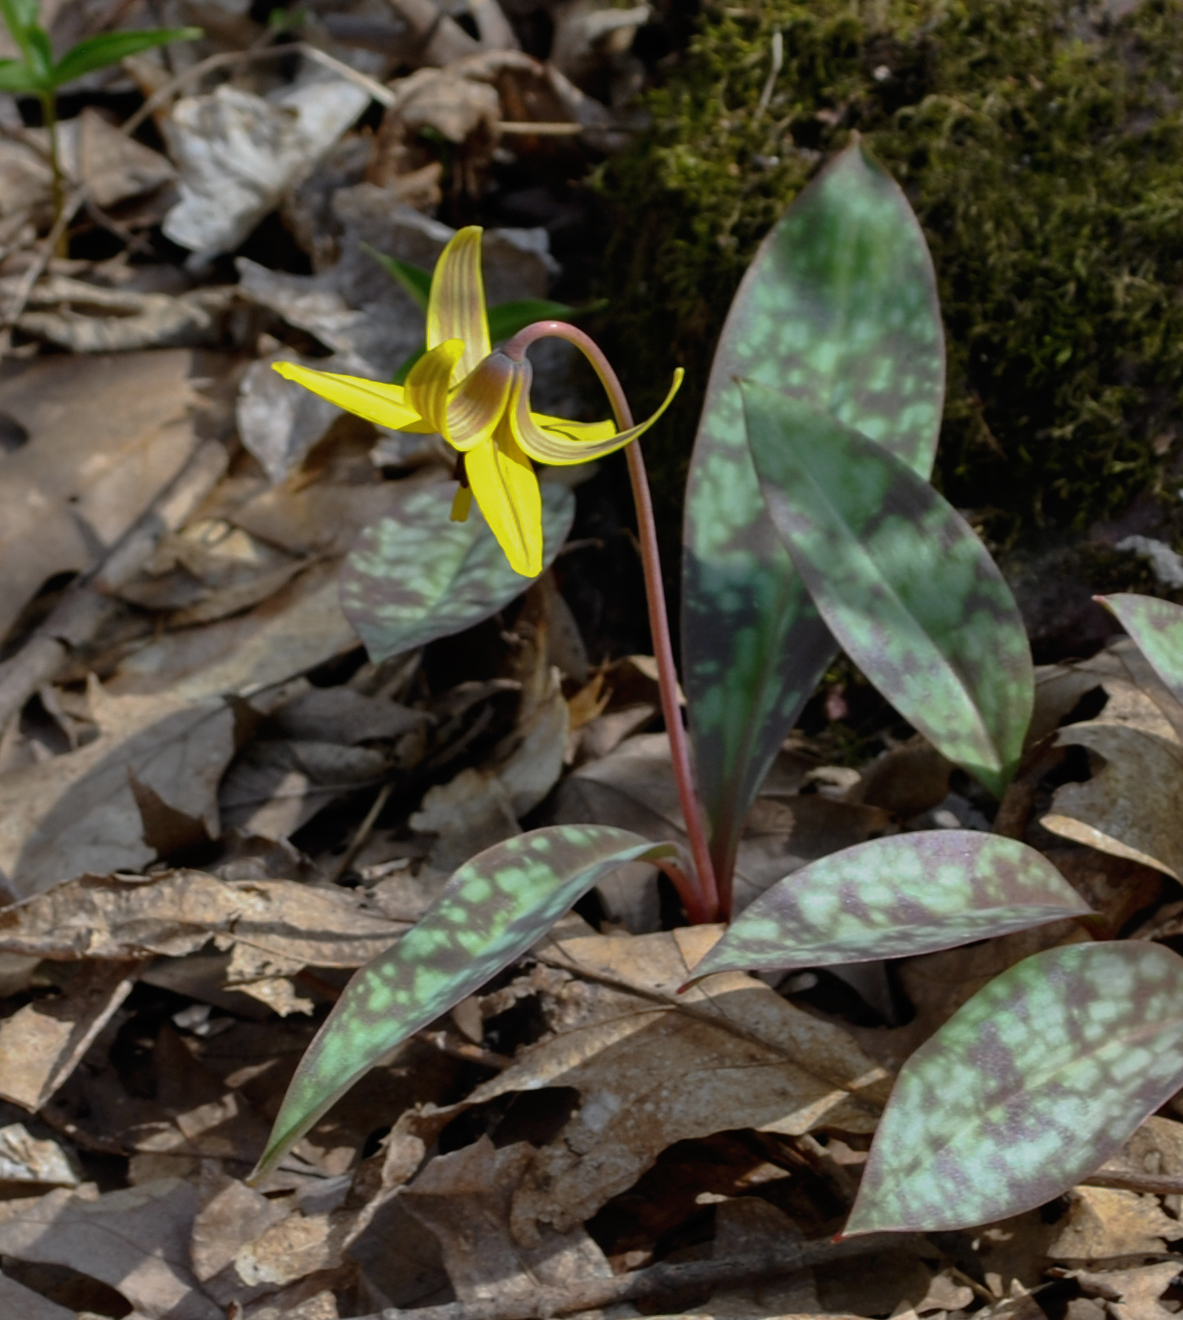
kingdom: Plantae
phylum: Tracheophyta
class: Liliopsida
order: Liliales
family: Liliaceae
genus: Erythronium
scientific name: Erythronium americanum
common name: Yellow adder's-tongue
